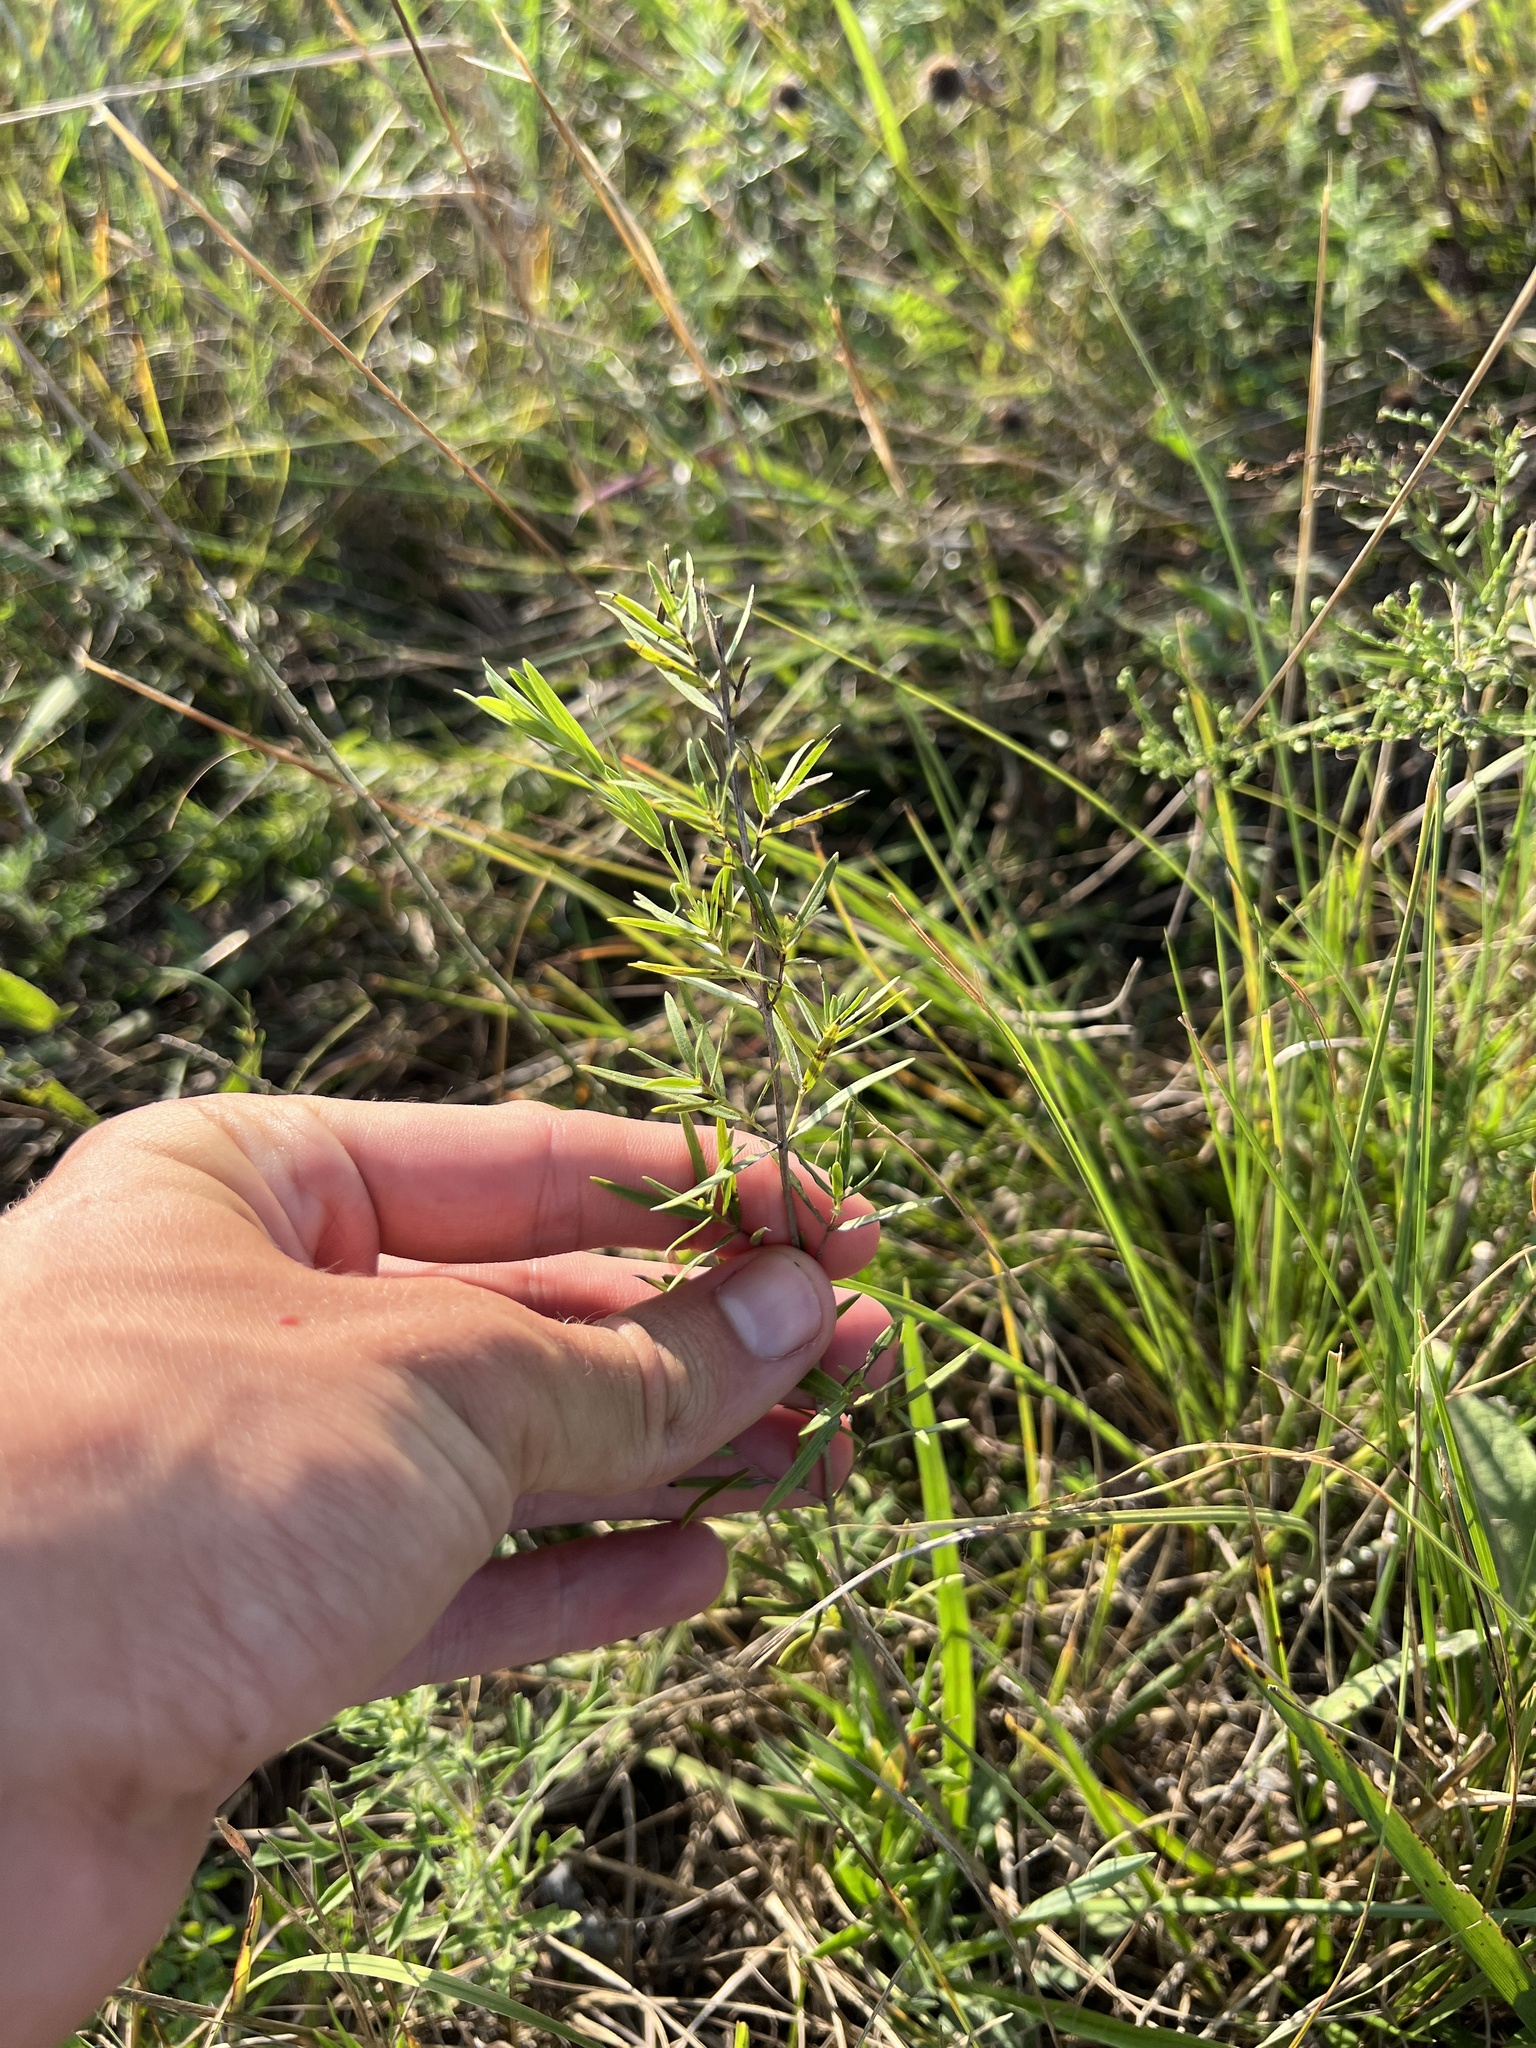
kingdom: Plantae
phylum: Tracheophyta
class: Magnoliopsida
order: Lamiales
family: Lamiaceae
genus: Pycnanthemum
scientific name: Pycnanthemum tenuifolium
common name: Narrow-leaf mountain-mint
